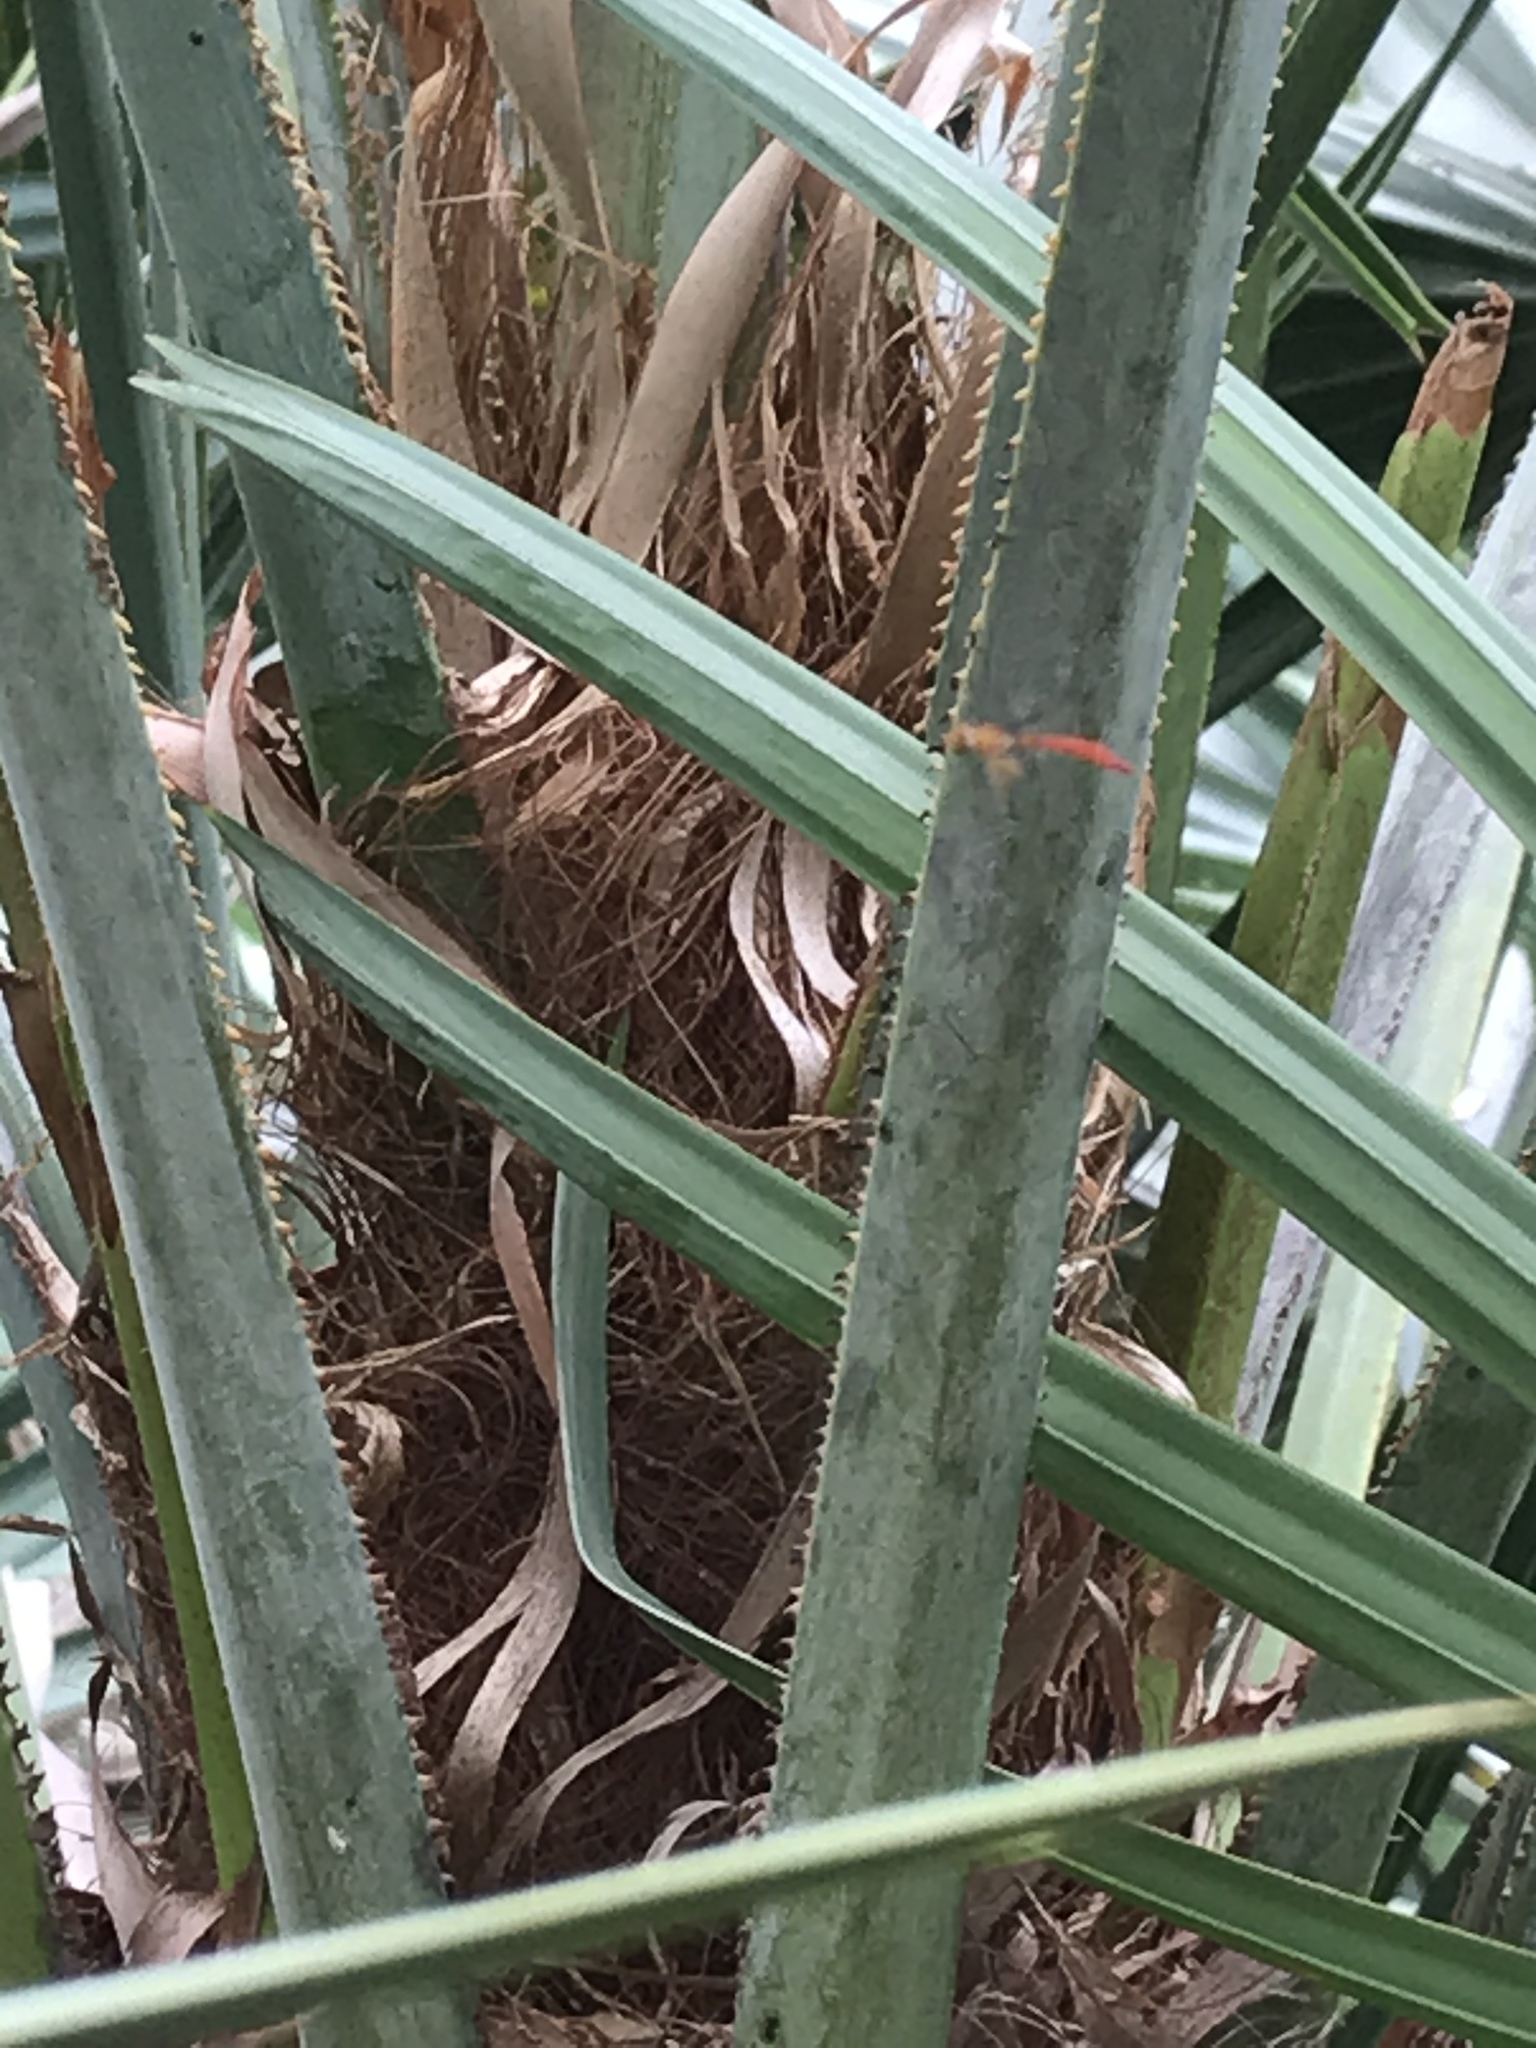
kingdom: Animalia
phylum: Arthropoda
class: Insecta
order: Diptera
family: Syrphidae
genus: Victoriana
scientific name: Victoriana parvicornis
